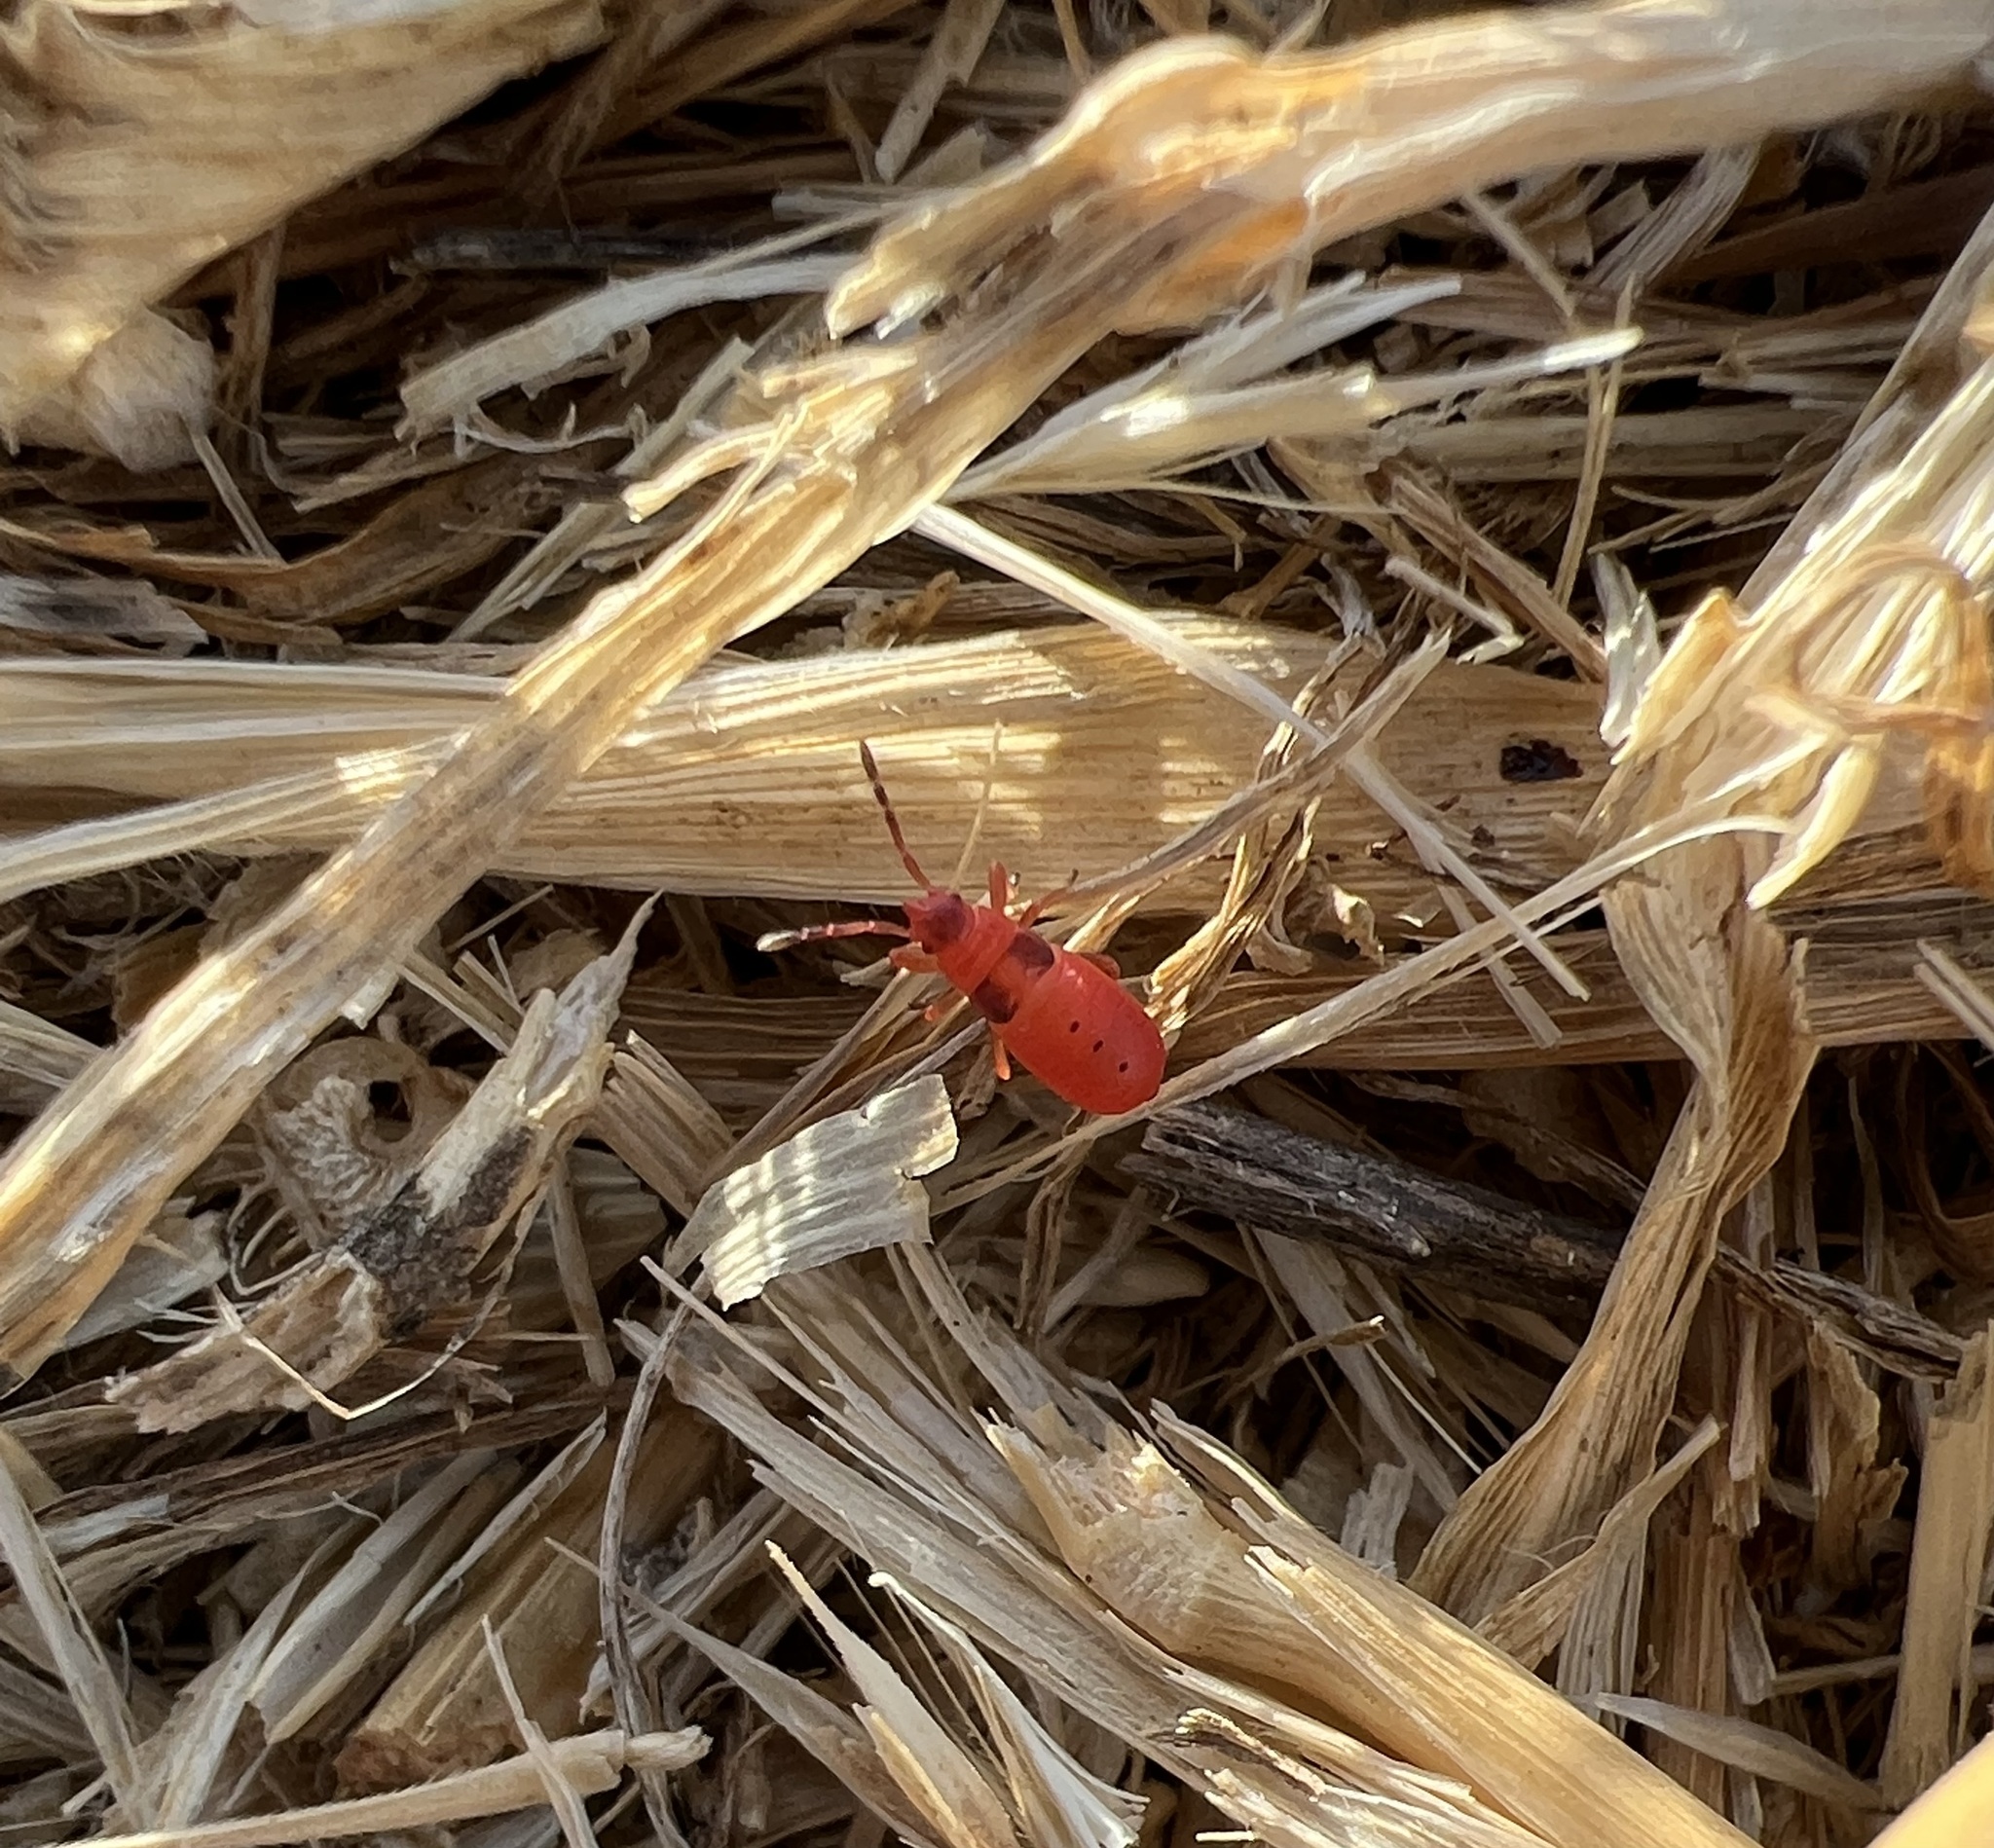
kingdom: Animalia
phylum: Arthropoda
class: Insecta
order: Hemiptera
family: Pyrrhocoridae
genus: Scantius
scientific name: Scantius aegyptius
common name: Red bug
